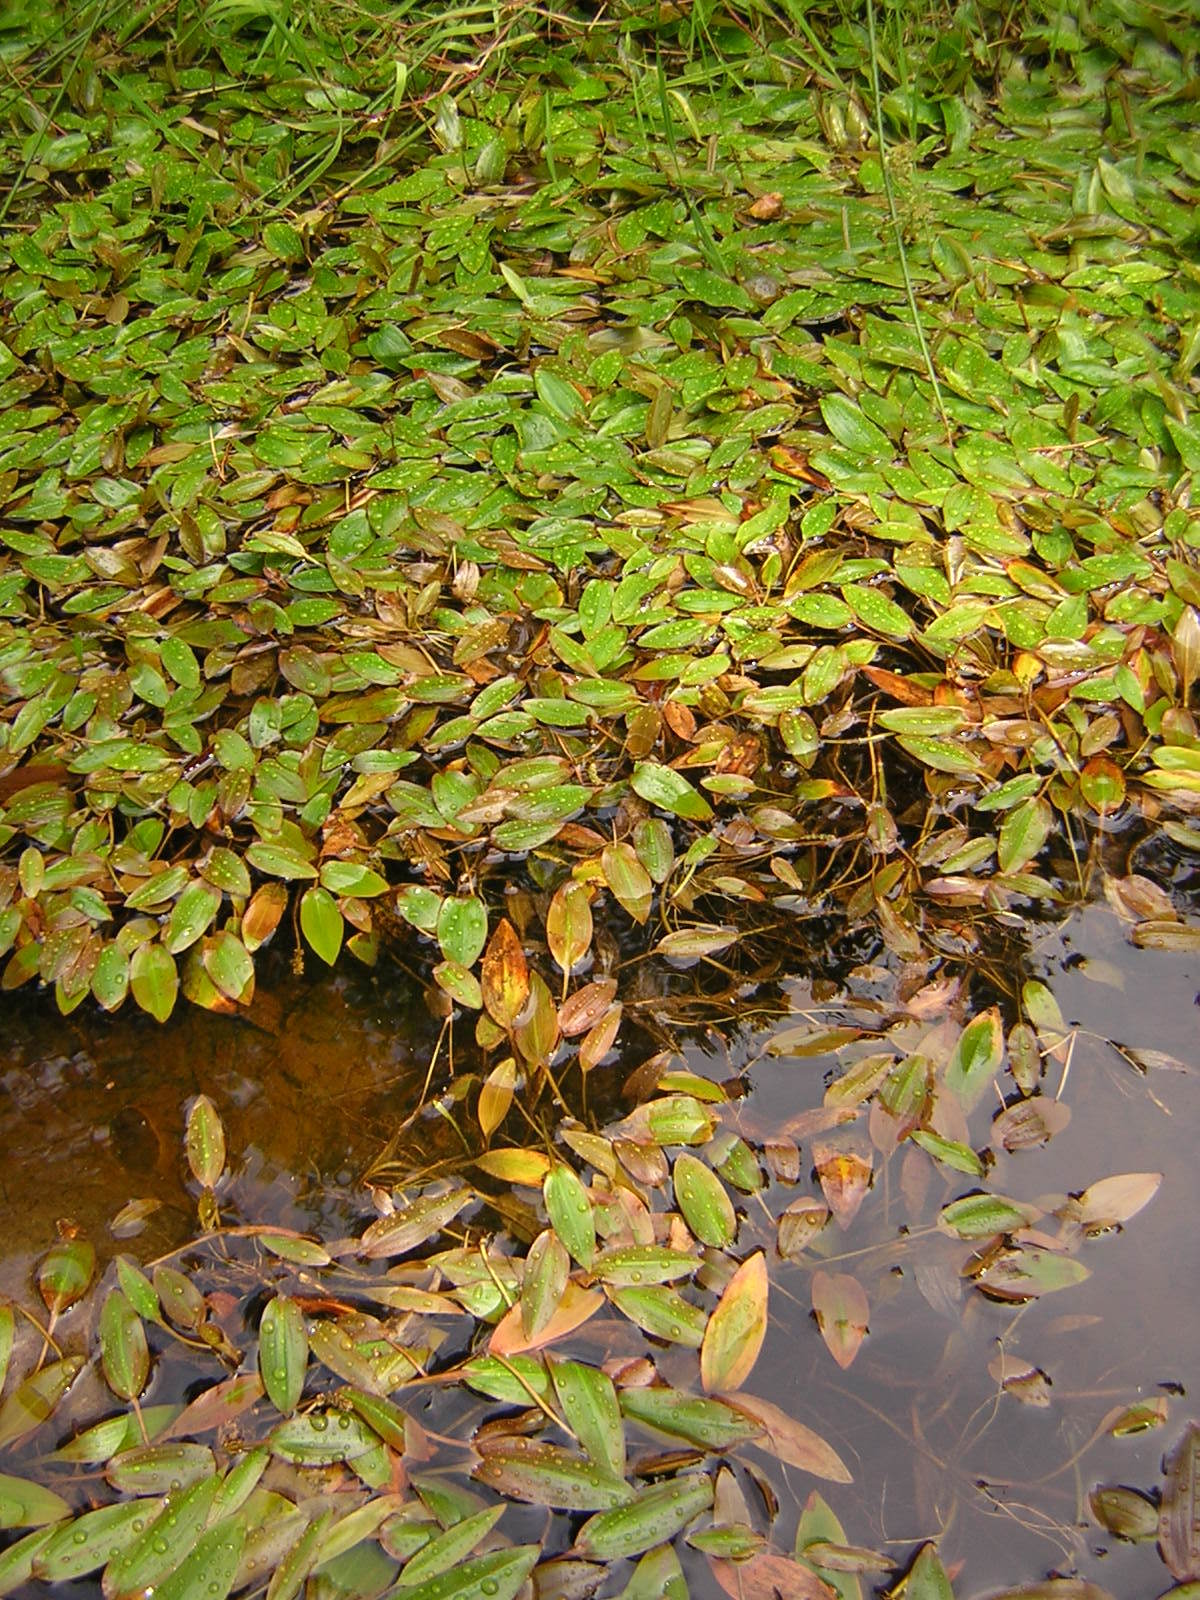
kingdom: Plantae
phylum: Tracheophyta
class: Liliopsida
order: Alismatales
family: Potamogetonaceae
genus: Potamogeton
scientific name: Potamogeton polygonifolius
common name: Bog pondweed
